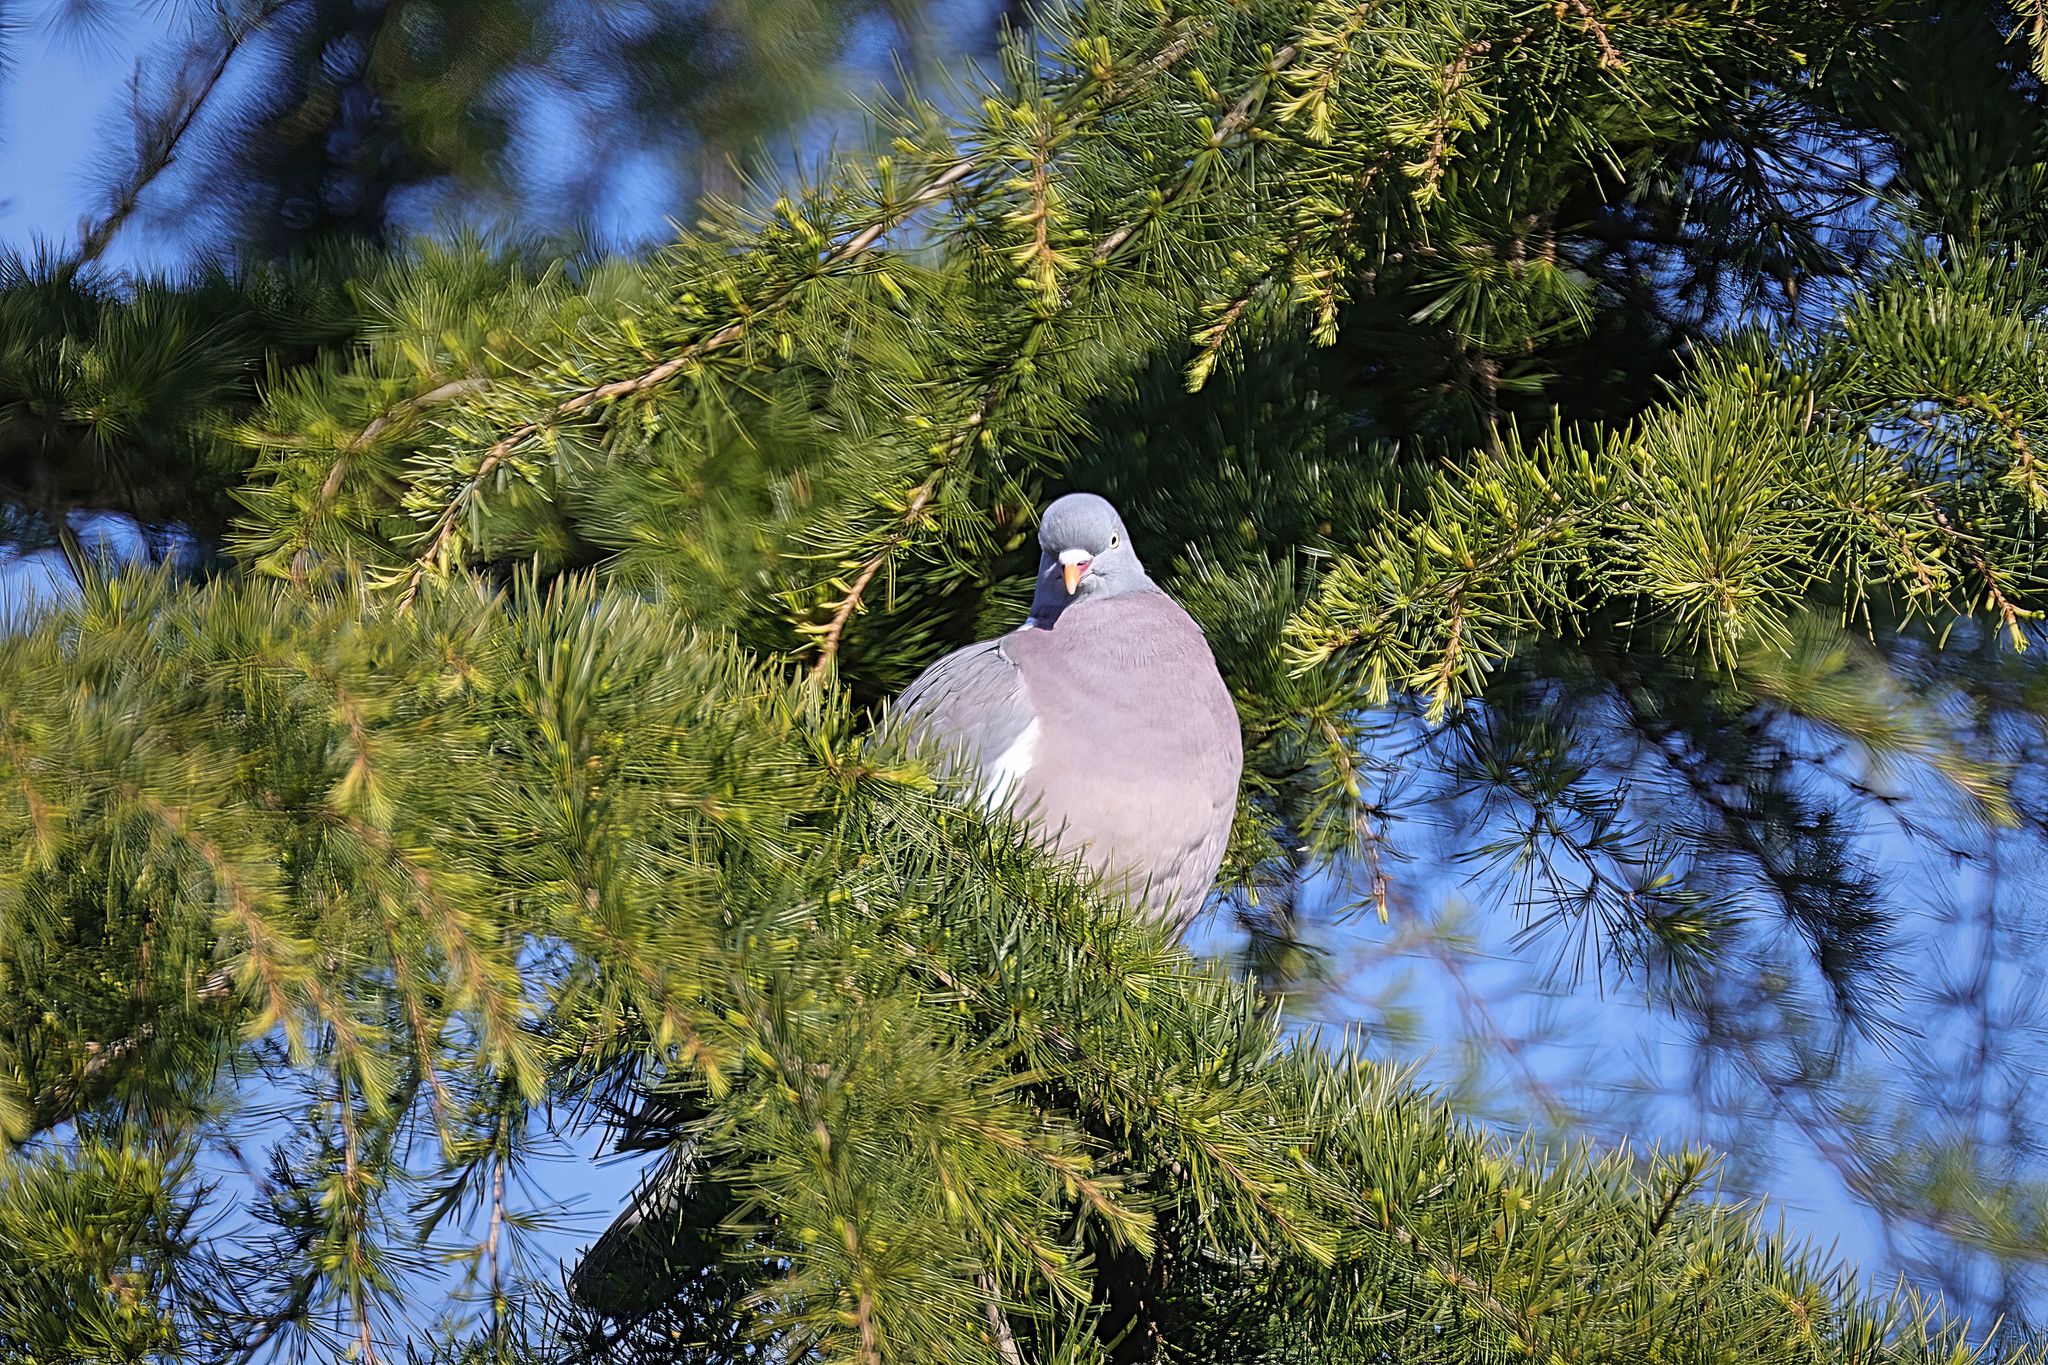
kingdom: Animalia
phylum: Chordata
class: Aves
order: Columbiformes
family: Columbidae
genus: Columba
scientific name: Columba palumbus
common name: Common wood pigeon
